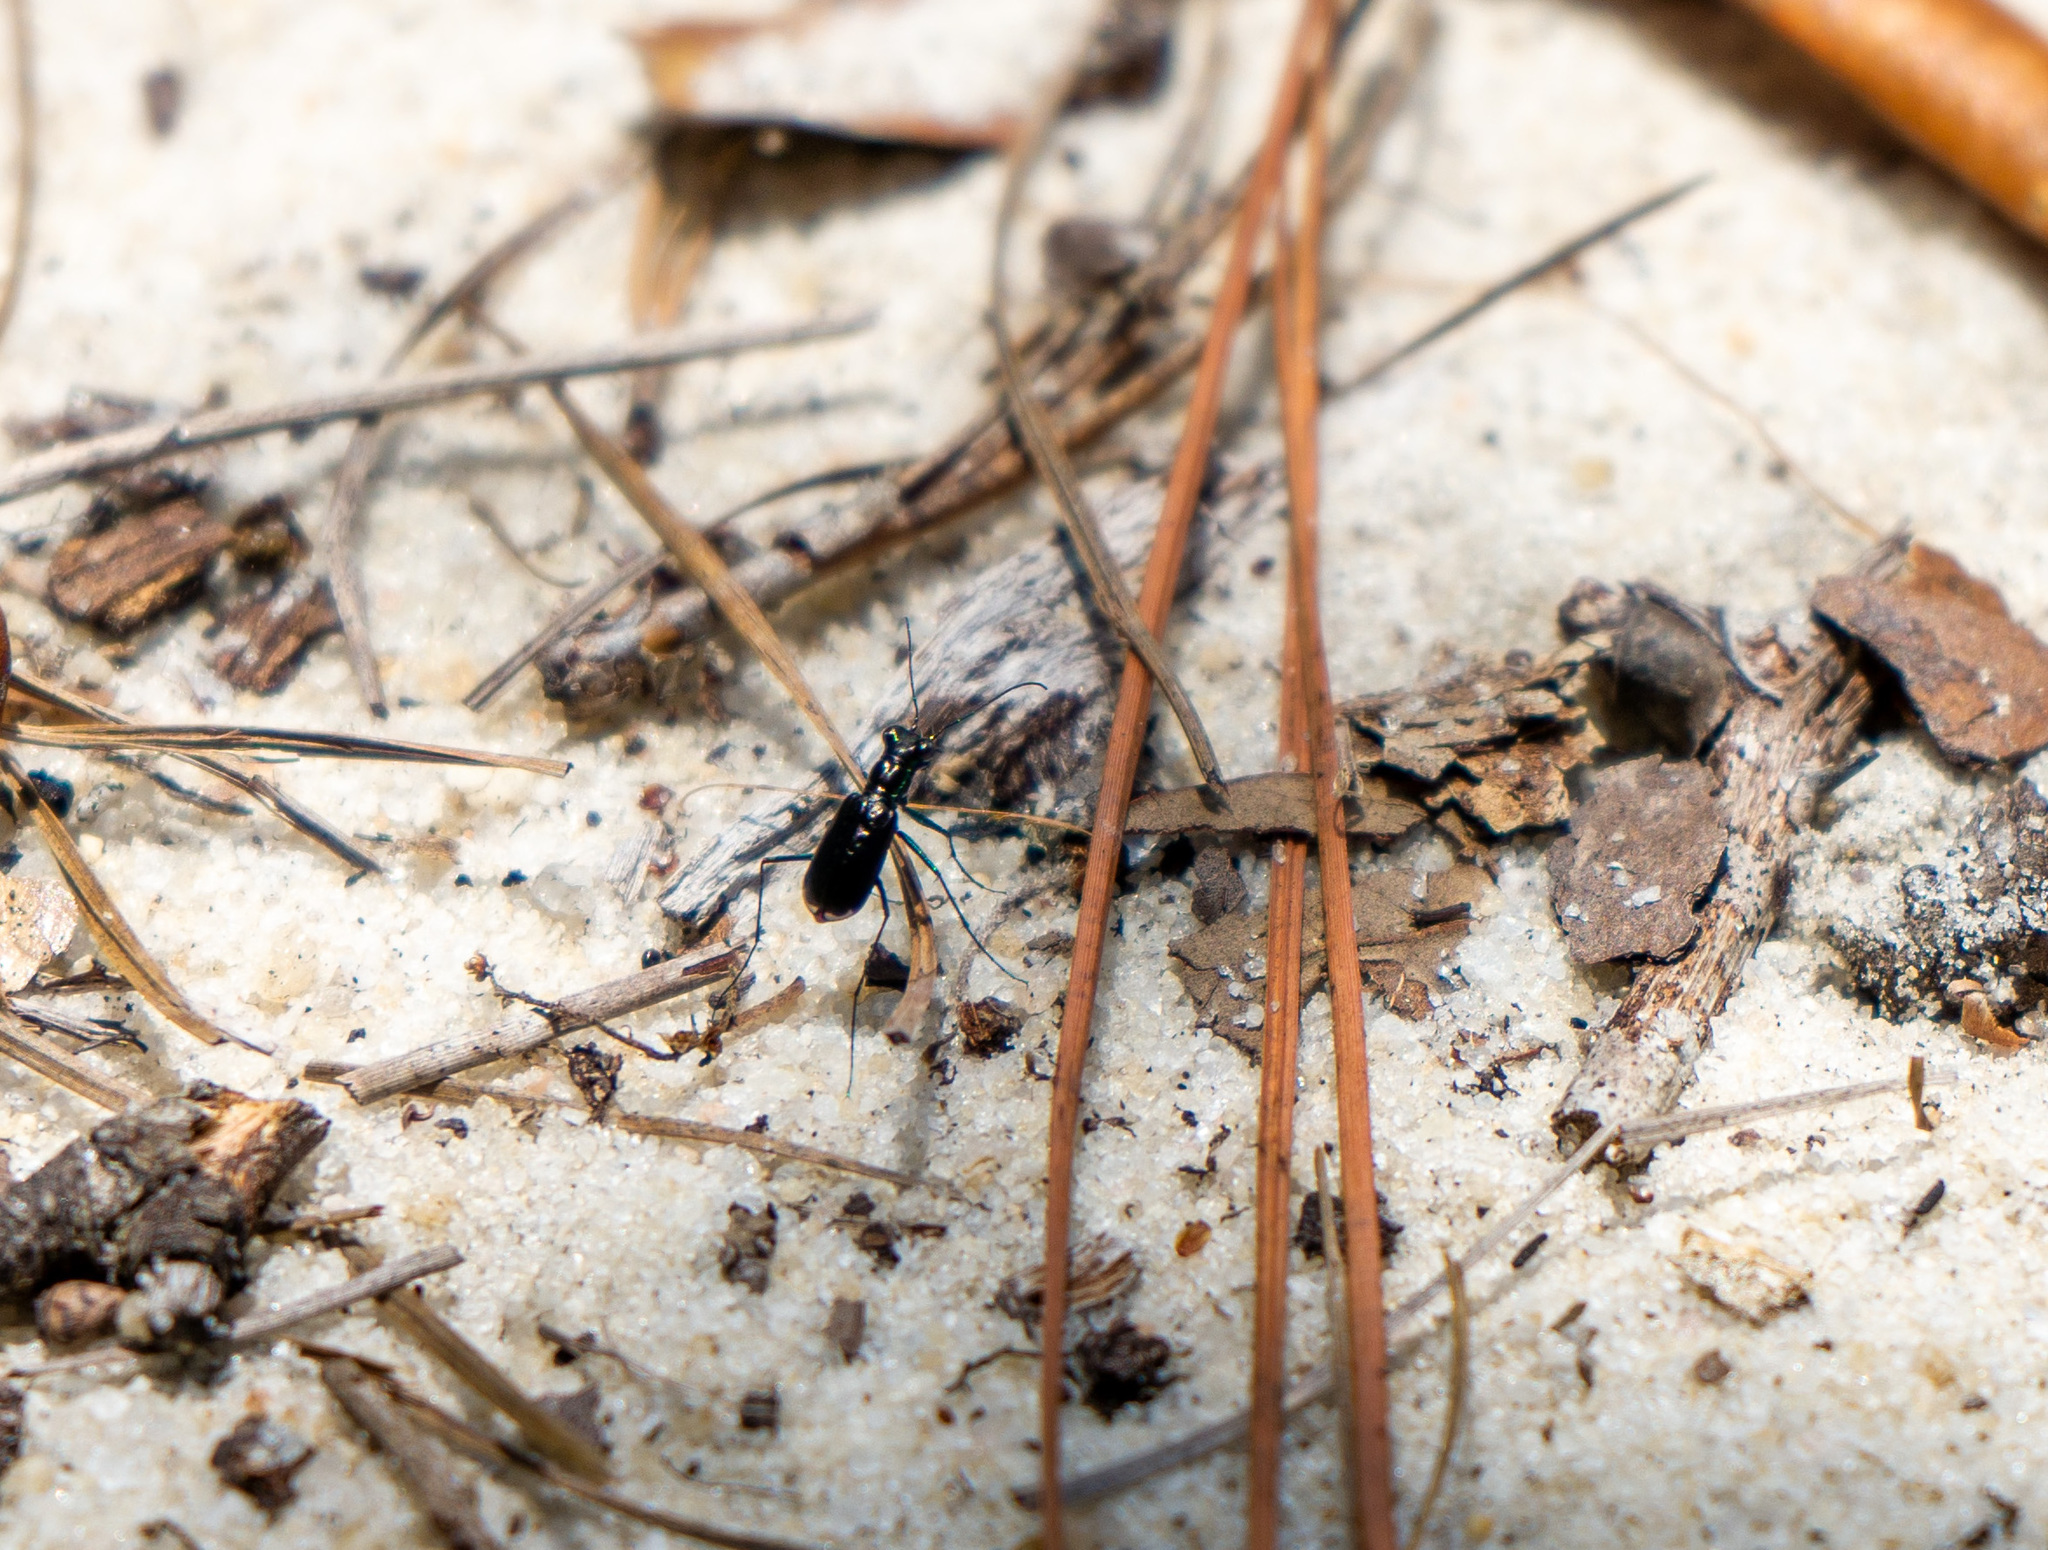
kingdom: Animalia
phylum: Arthropoda
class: Insecta
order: Coleoptera
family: Carabidae
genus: Cicindela
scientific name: Cicindela abdominalis
